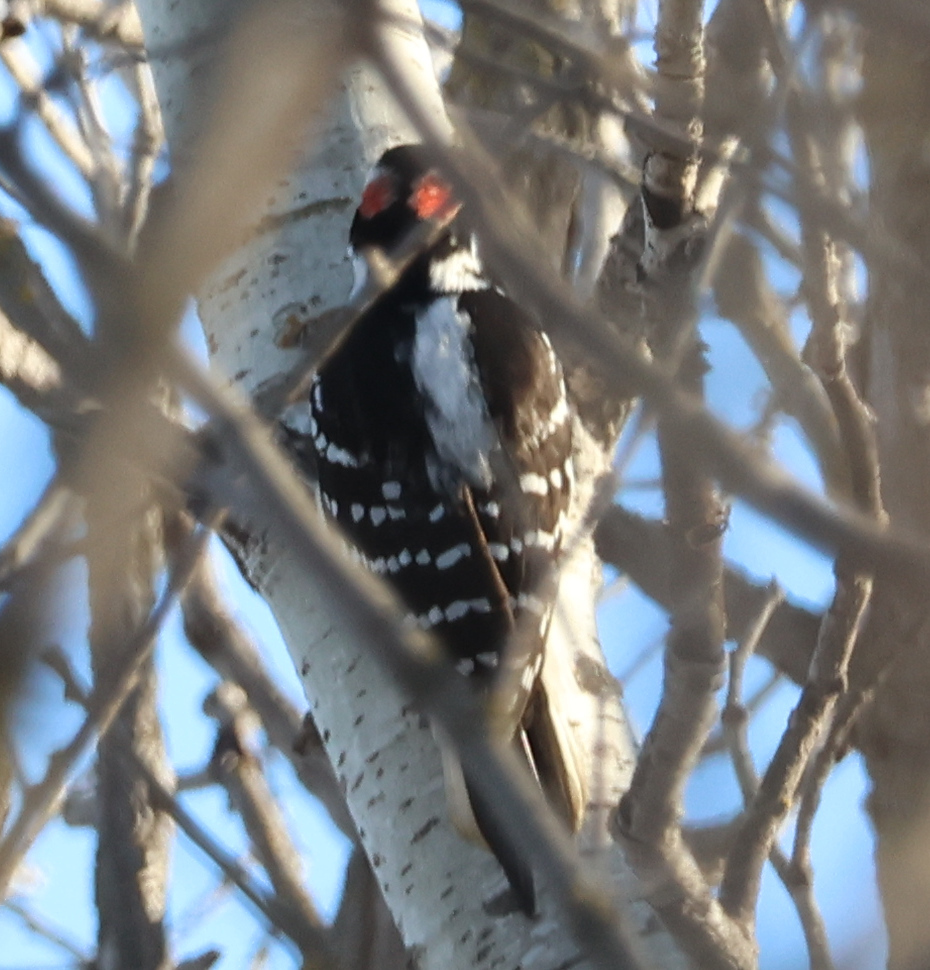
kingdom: Animalia
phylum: Chordata
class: Aves
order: Piciformes
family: Picidae
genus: Leuconotopicus
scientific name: Leuconotopicus villosus
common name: Hairy woodpecker
